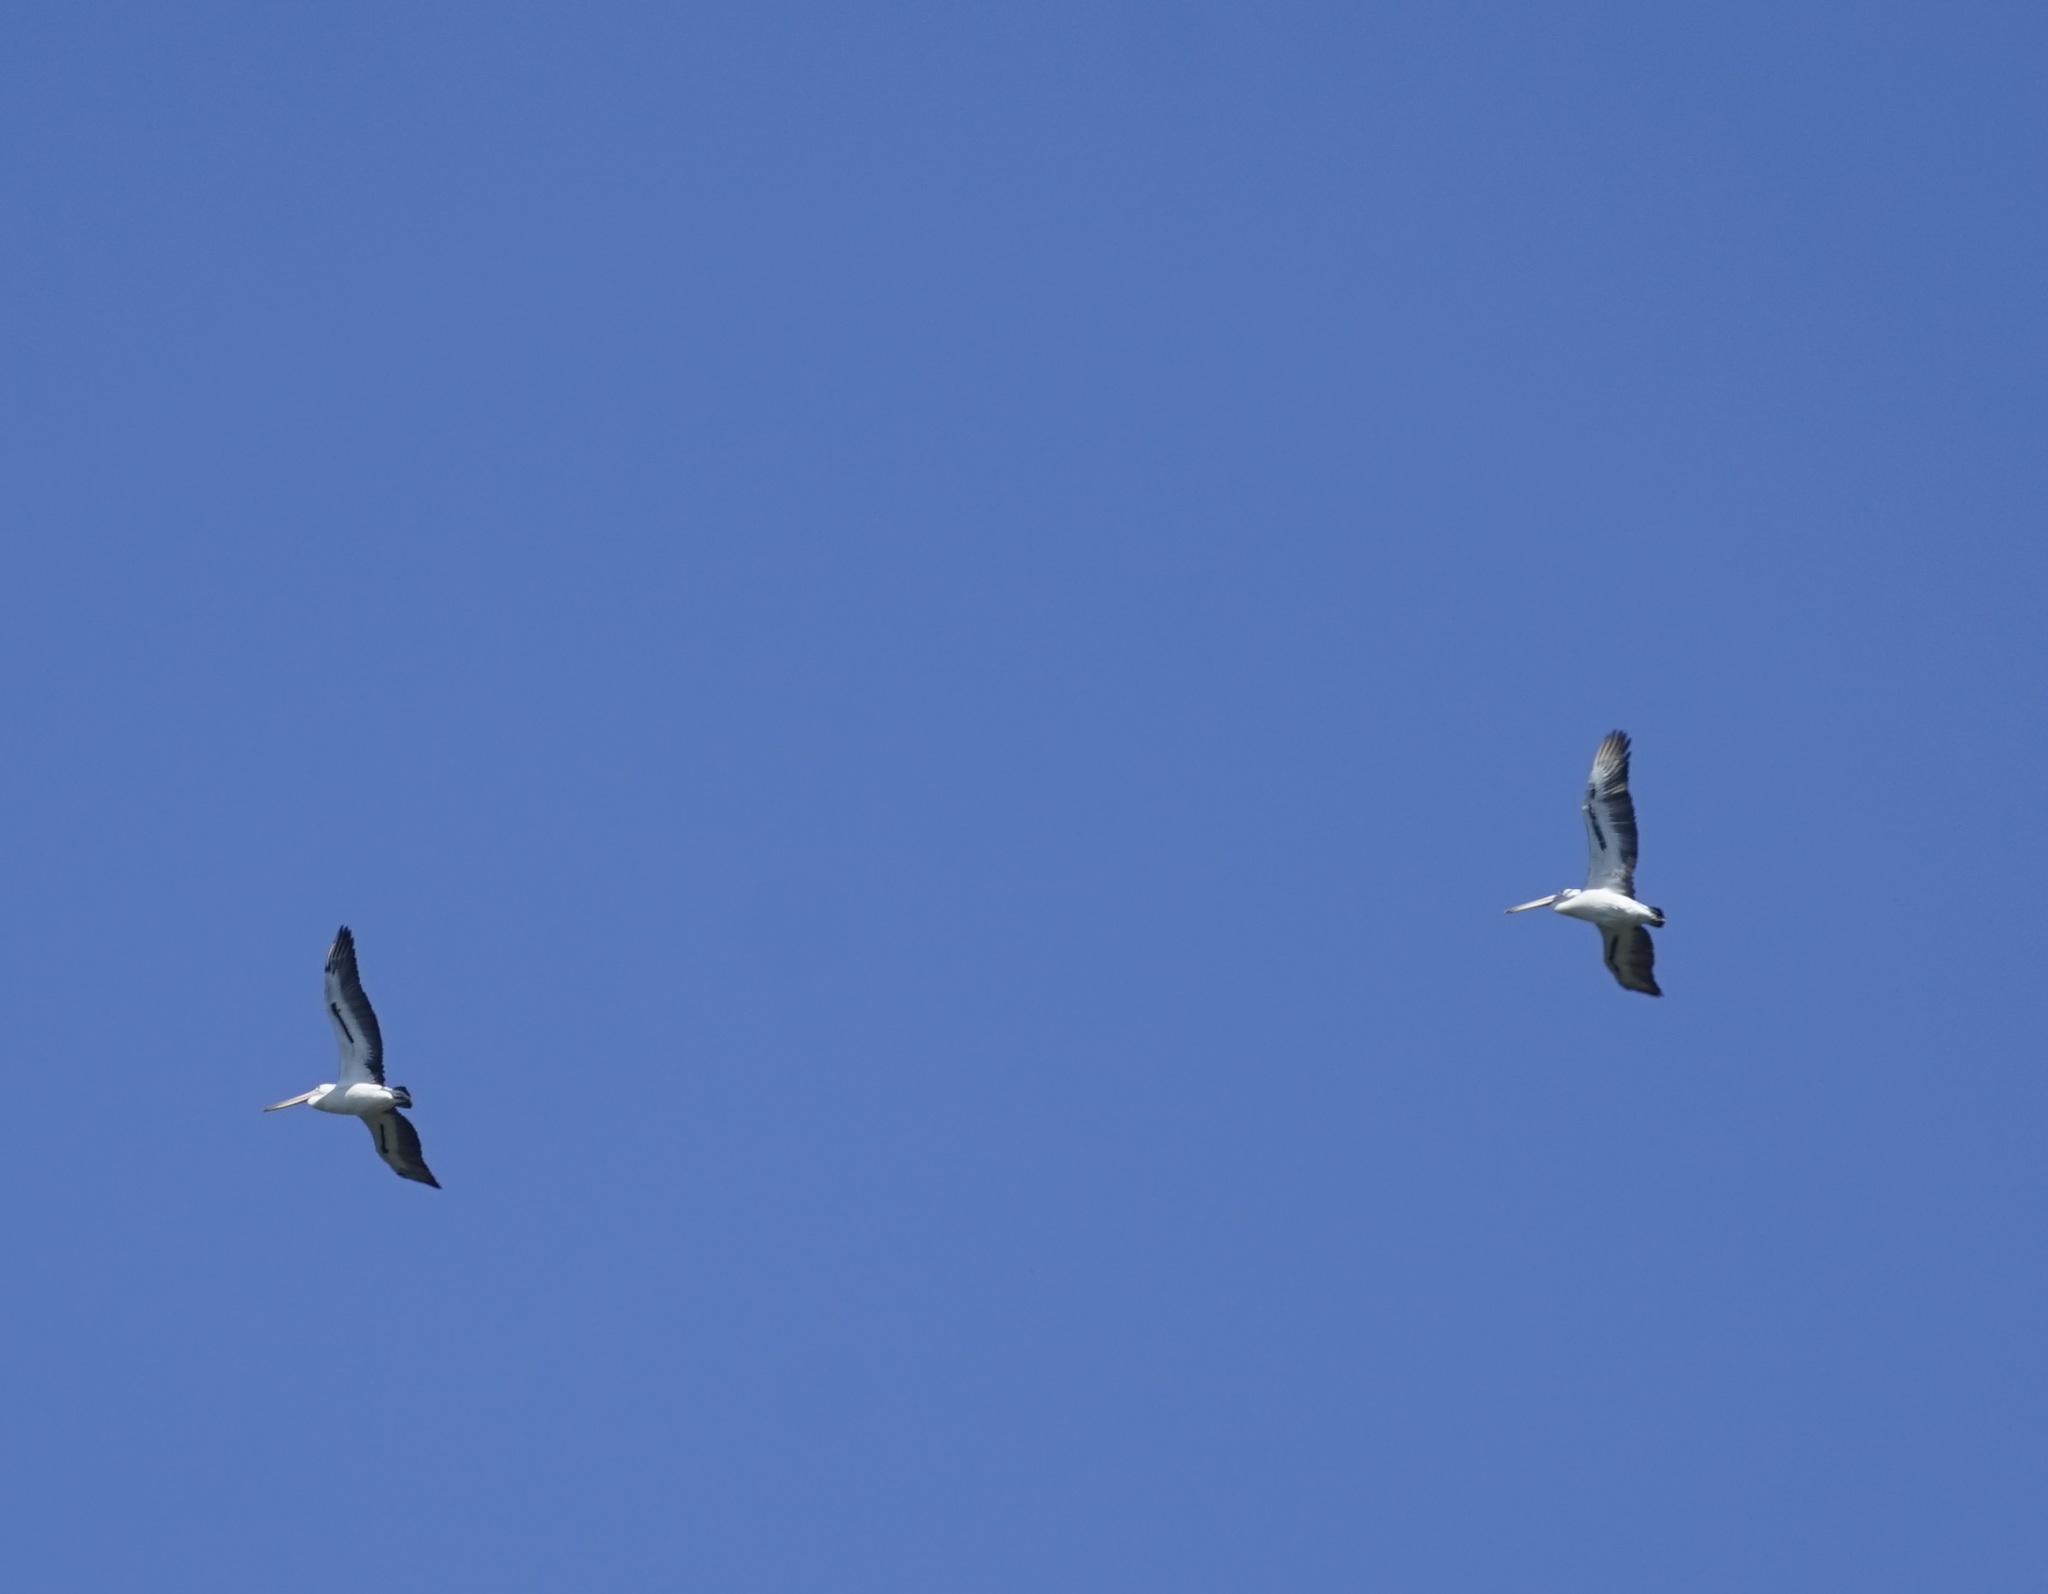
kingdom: Animalia
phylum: Chordata
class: Aves
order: Pelecaniformes
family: Pelecanidae
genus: Pelecanus
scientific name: Pelecanus conspicillatus
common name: Australian pelican
